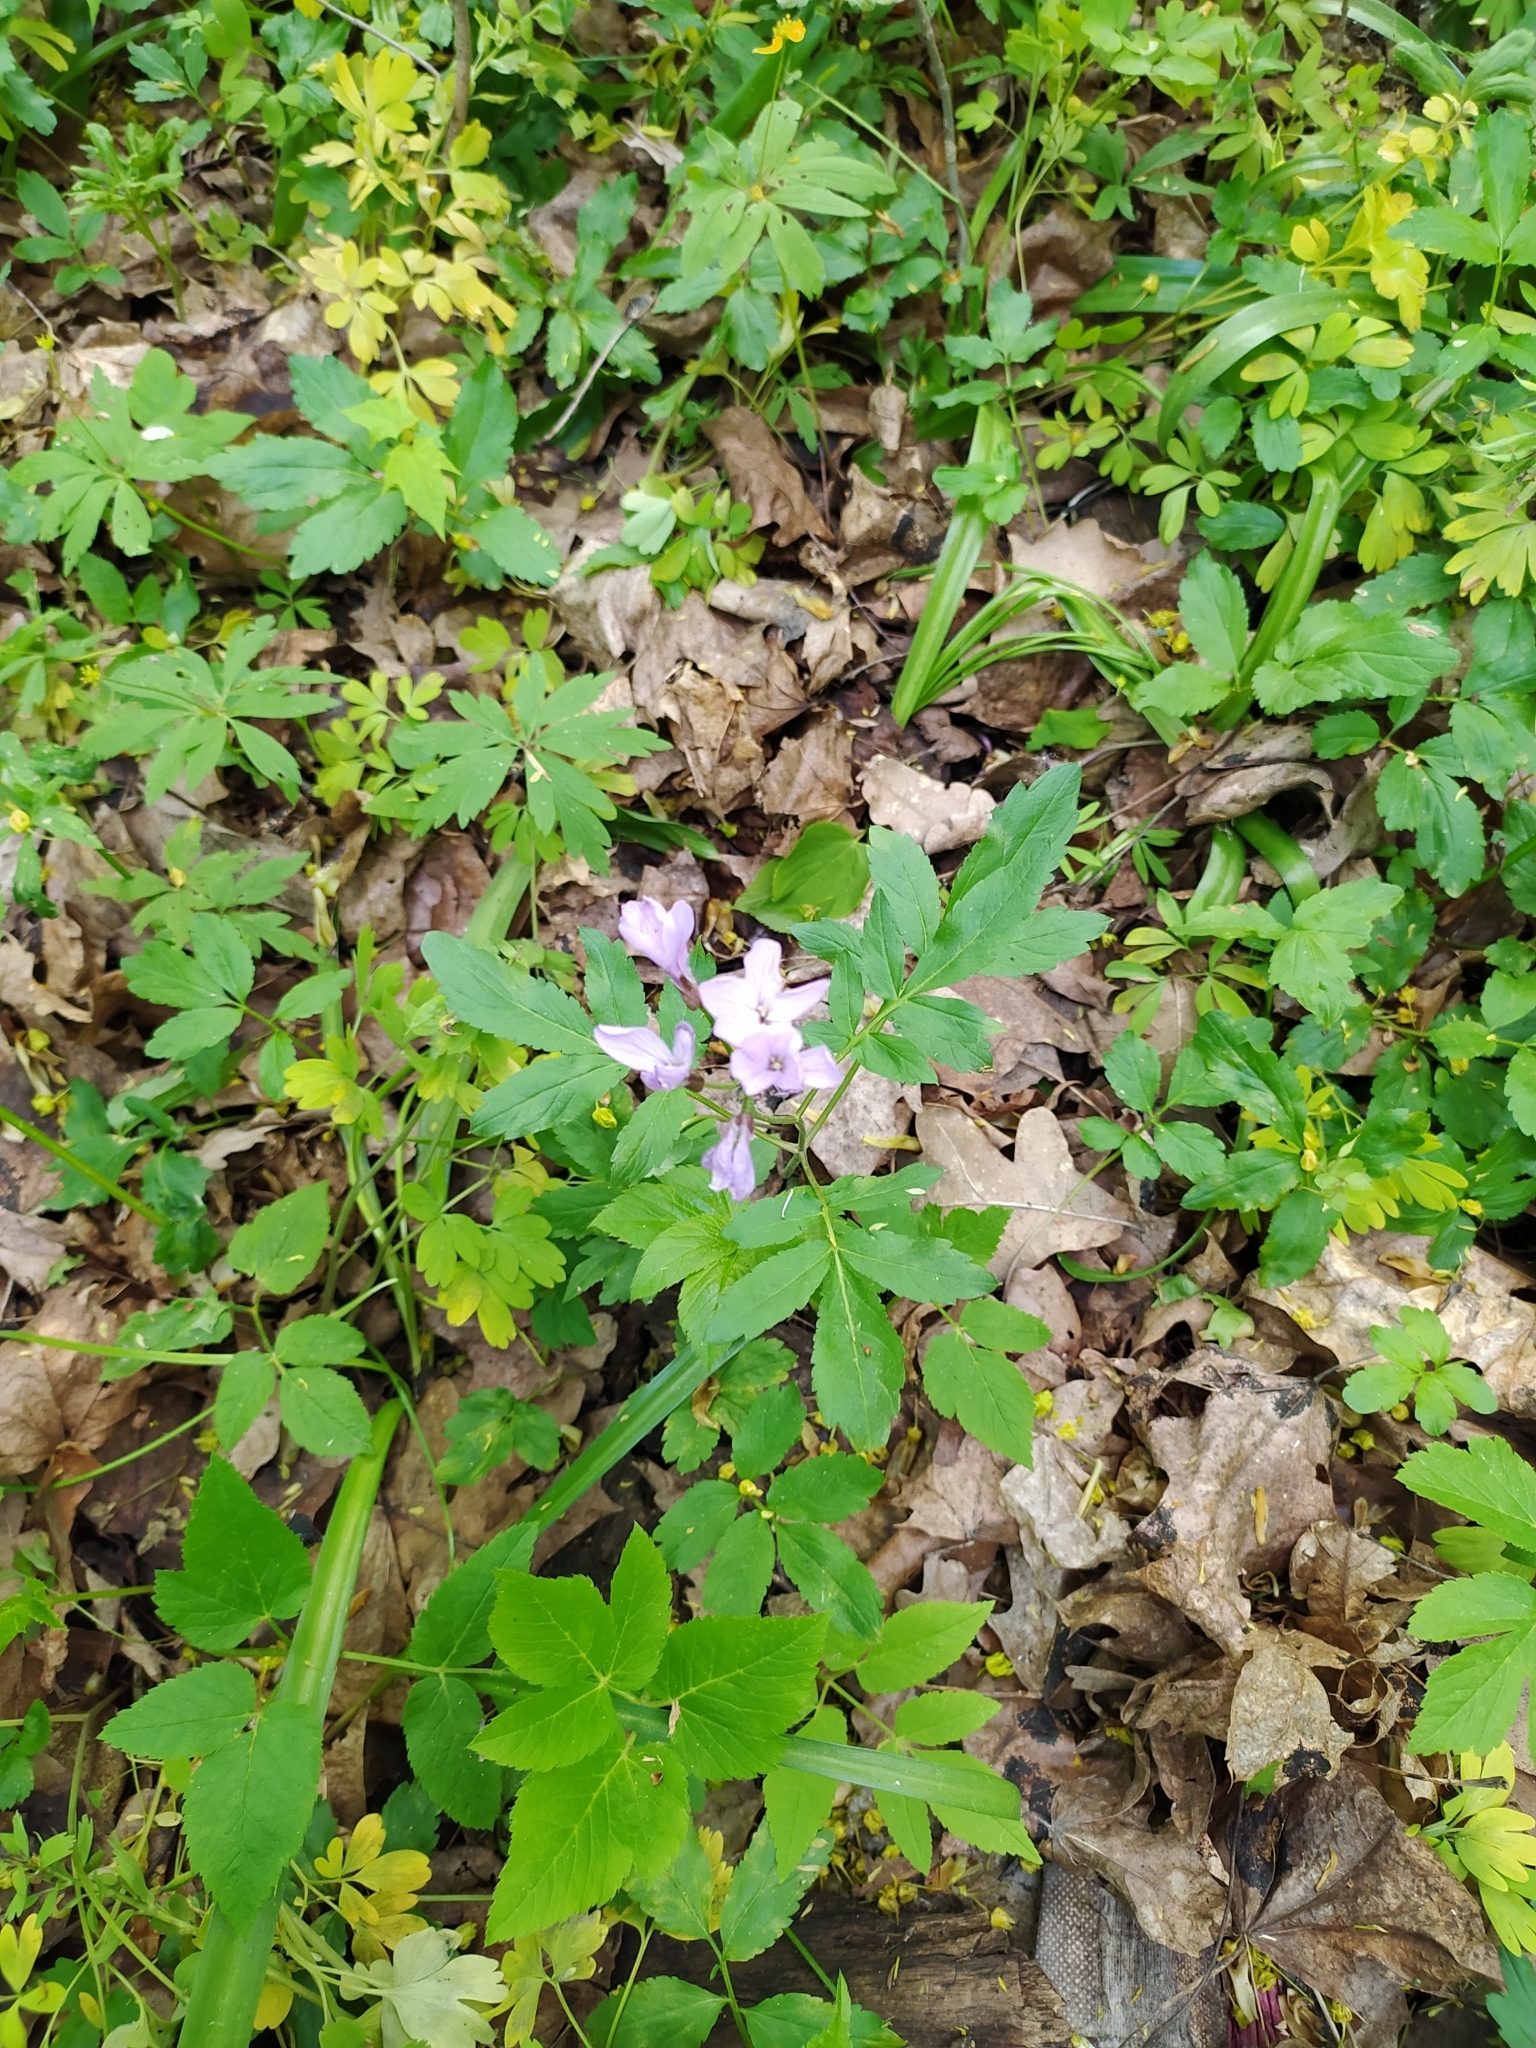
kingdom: Plantae
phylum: Tracheophyta
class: Magnoliopsida
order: Brassicales
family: Brassicaceae
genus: Cardamine
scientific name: Cardamine quinquefolia
